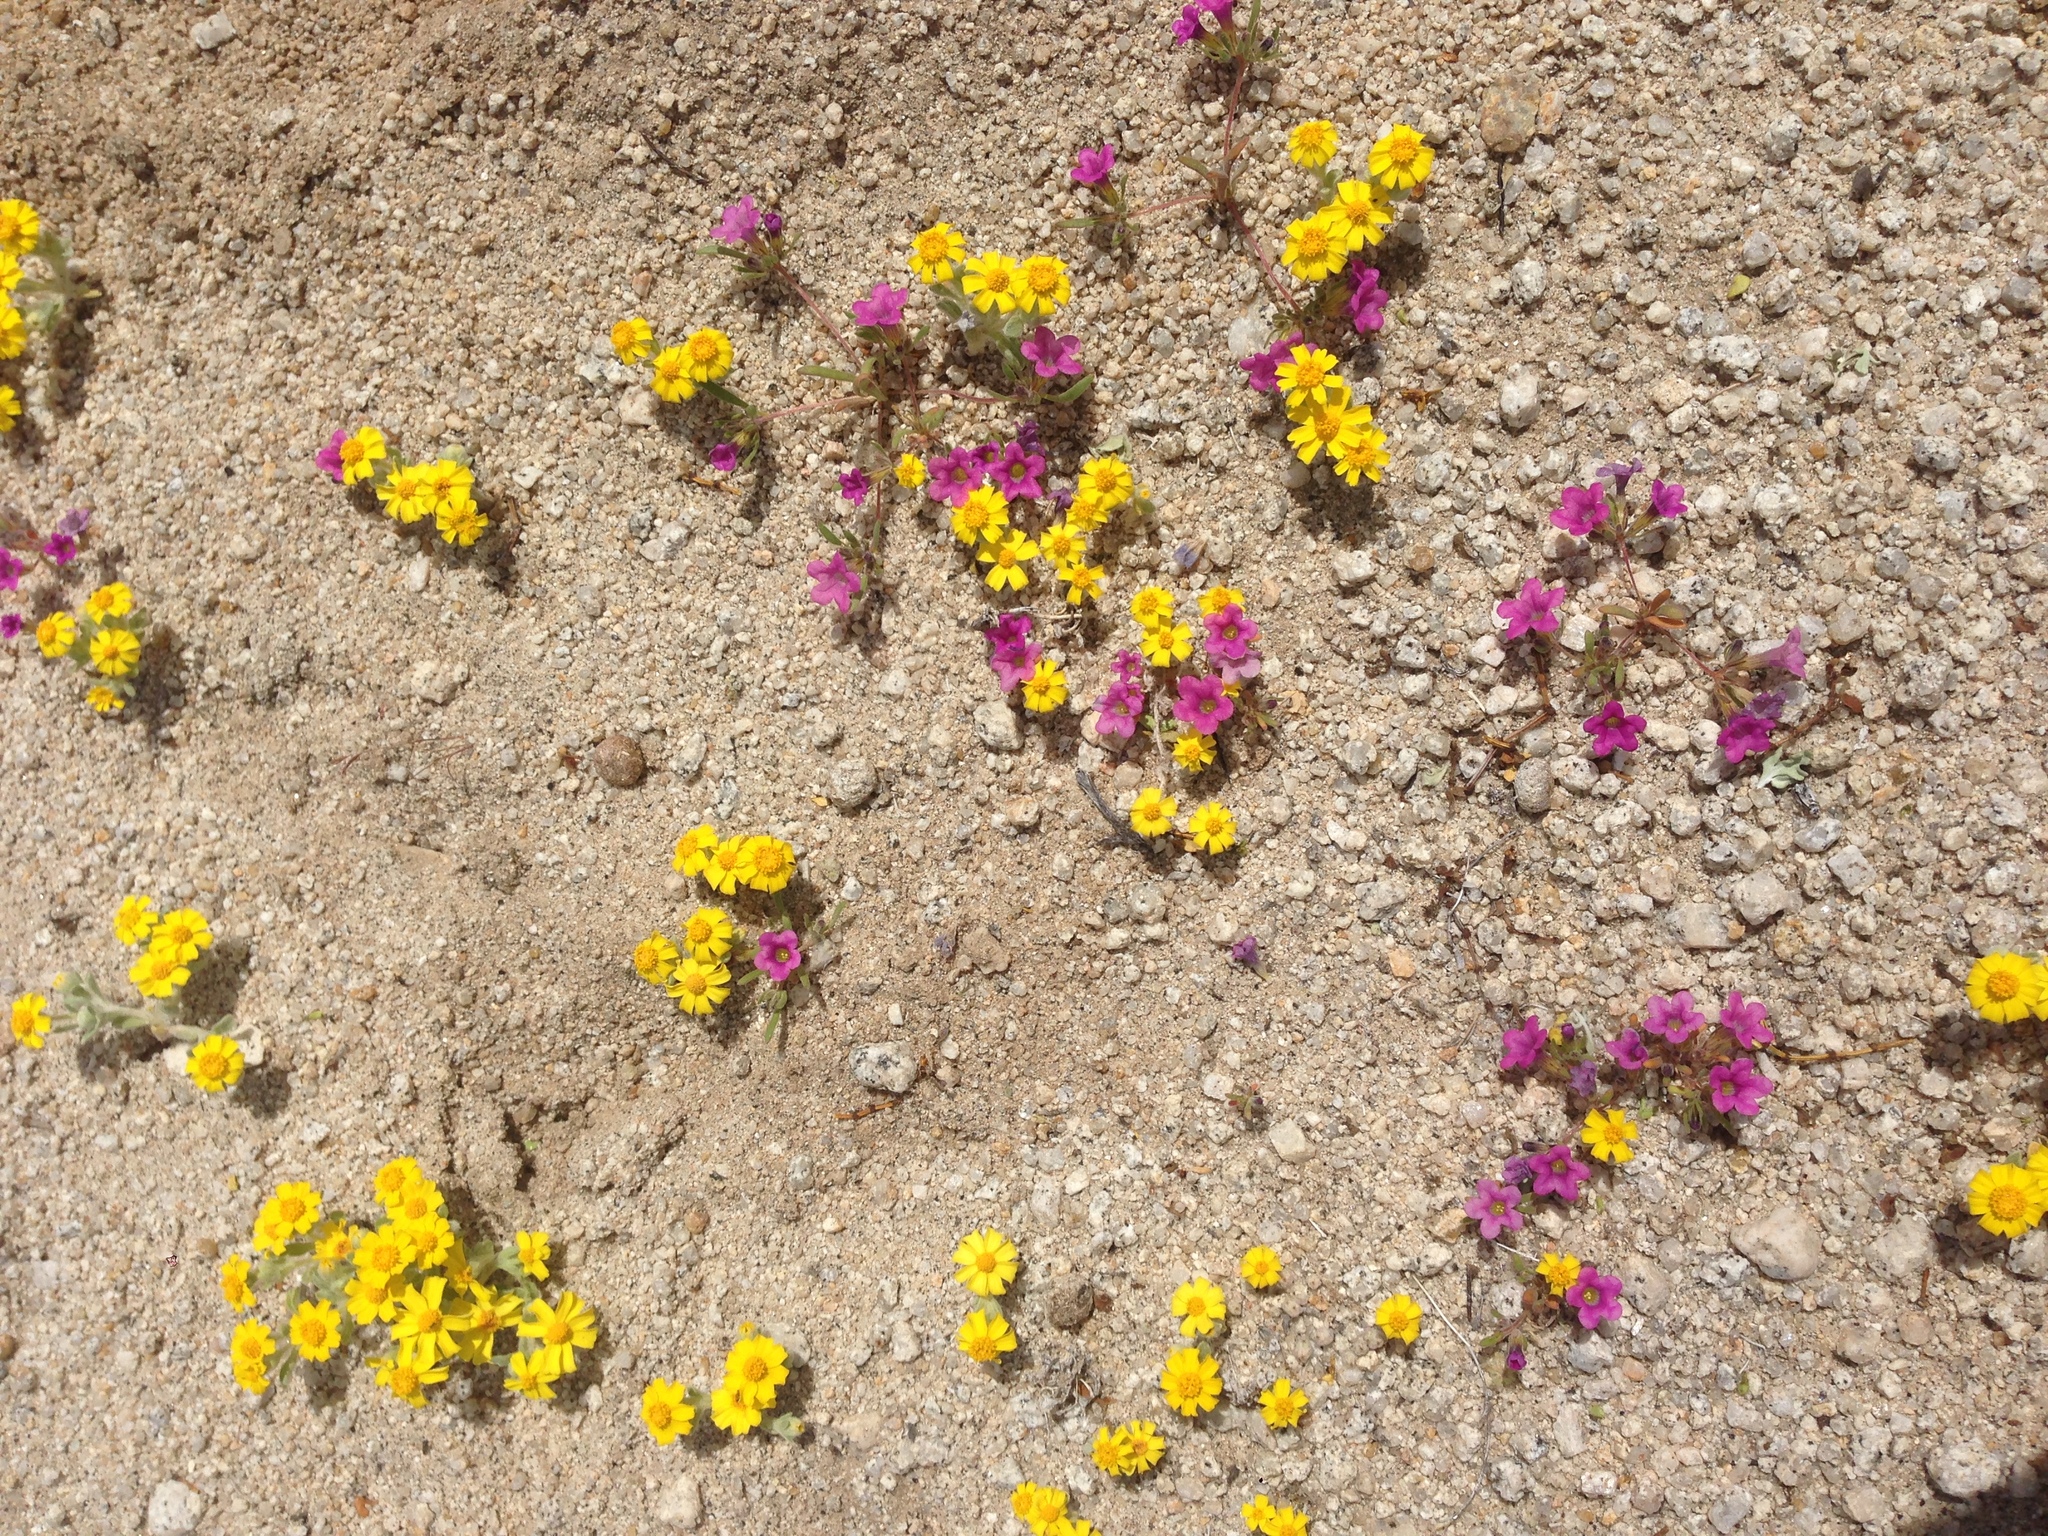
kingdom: Plantae
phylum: Tracheophyta
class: Magnoliopsida
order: Asterales
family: Asteraceae
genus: Eriophyllum
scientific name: Eriophyllum wallacei
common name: Wallace's woolly daisy
